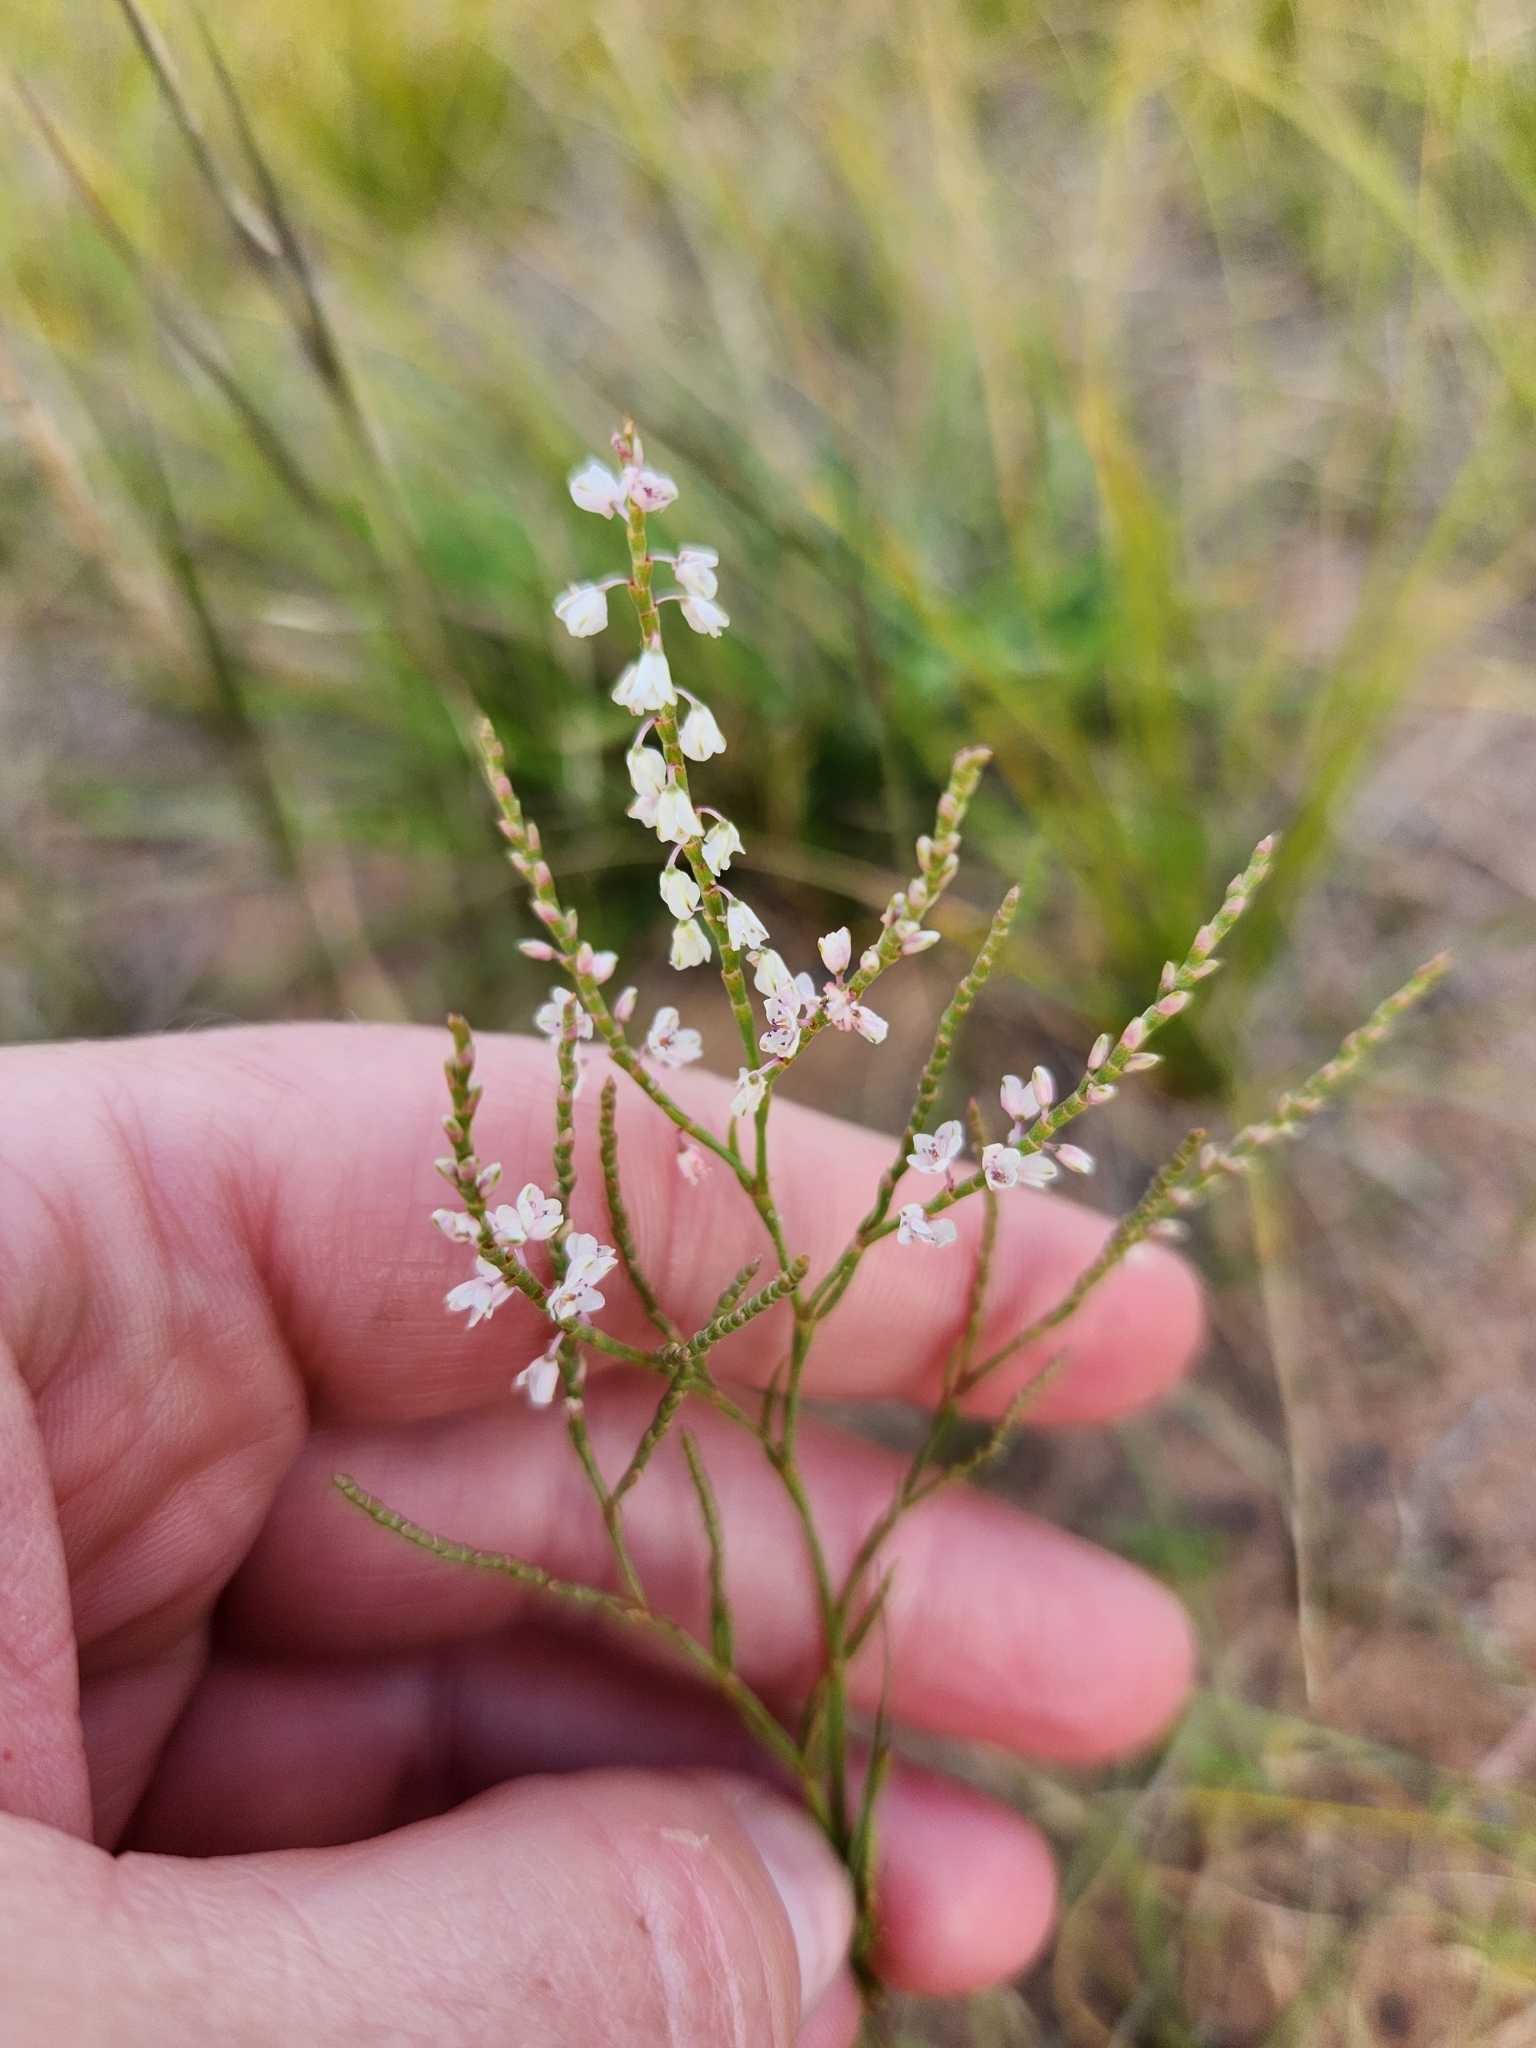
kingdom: Plantae
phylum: Tracheophyta
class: Magnoliopsida
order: Caryophyllales
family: Polygonaceae
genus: Polygonella
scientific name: Polygonella articulata
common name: Coastal jointweed
